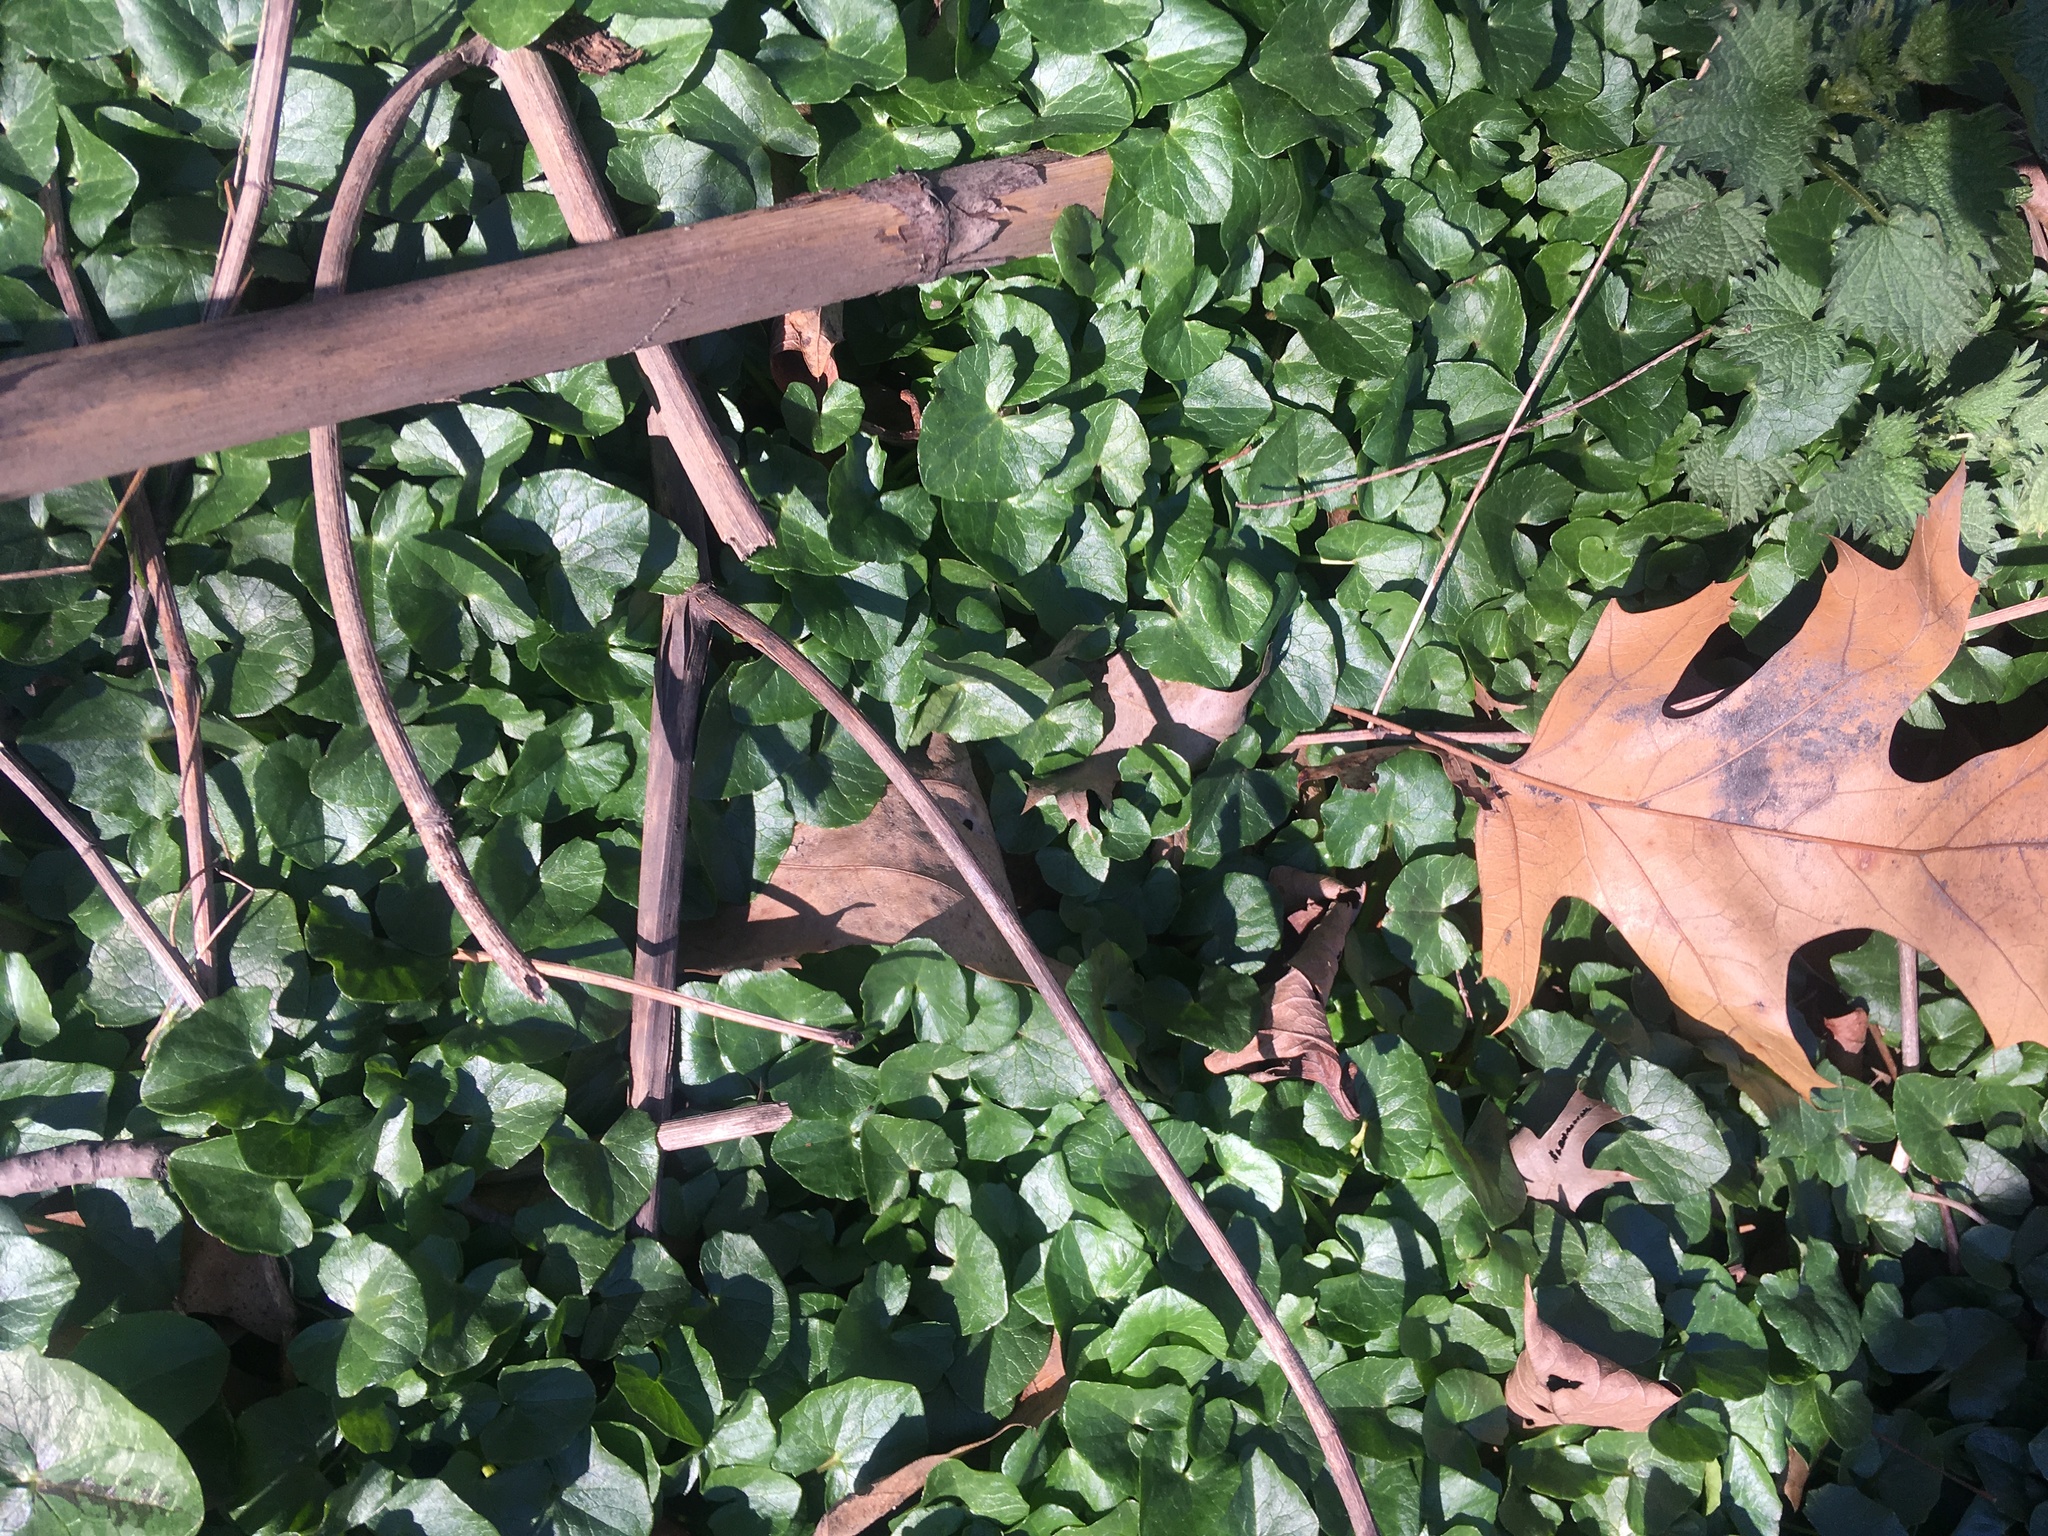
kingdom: Plantae
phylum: Tracheophyta
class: Magnoliopsida
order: Ranunculales
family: Ranunculaceae
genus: Ficaria
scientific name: Ficaria verna
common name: Lesser celandine
